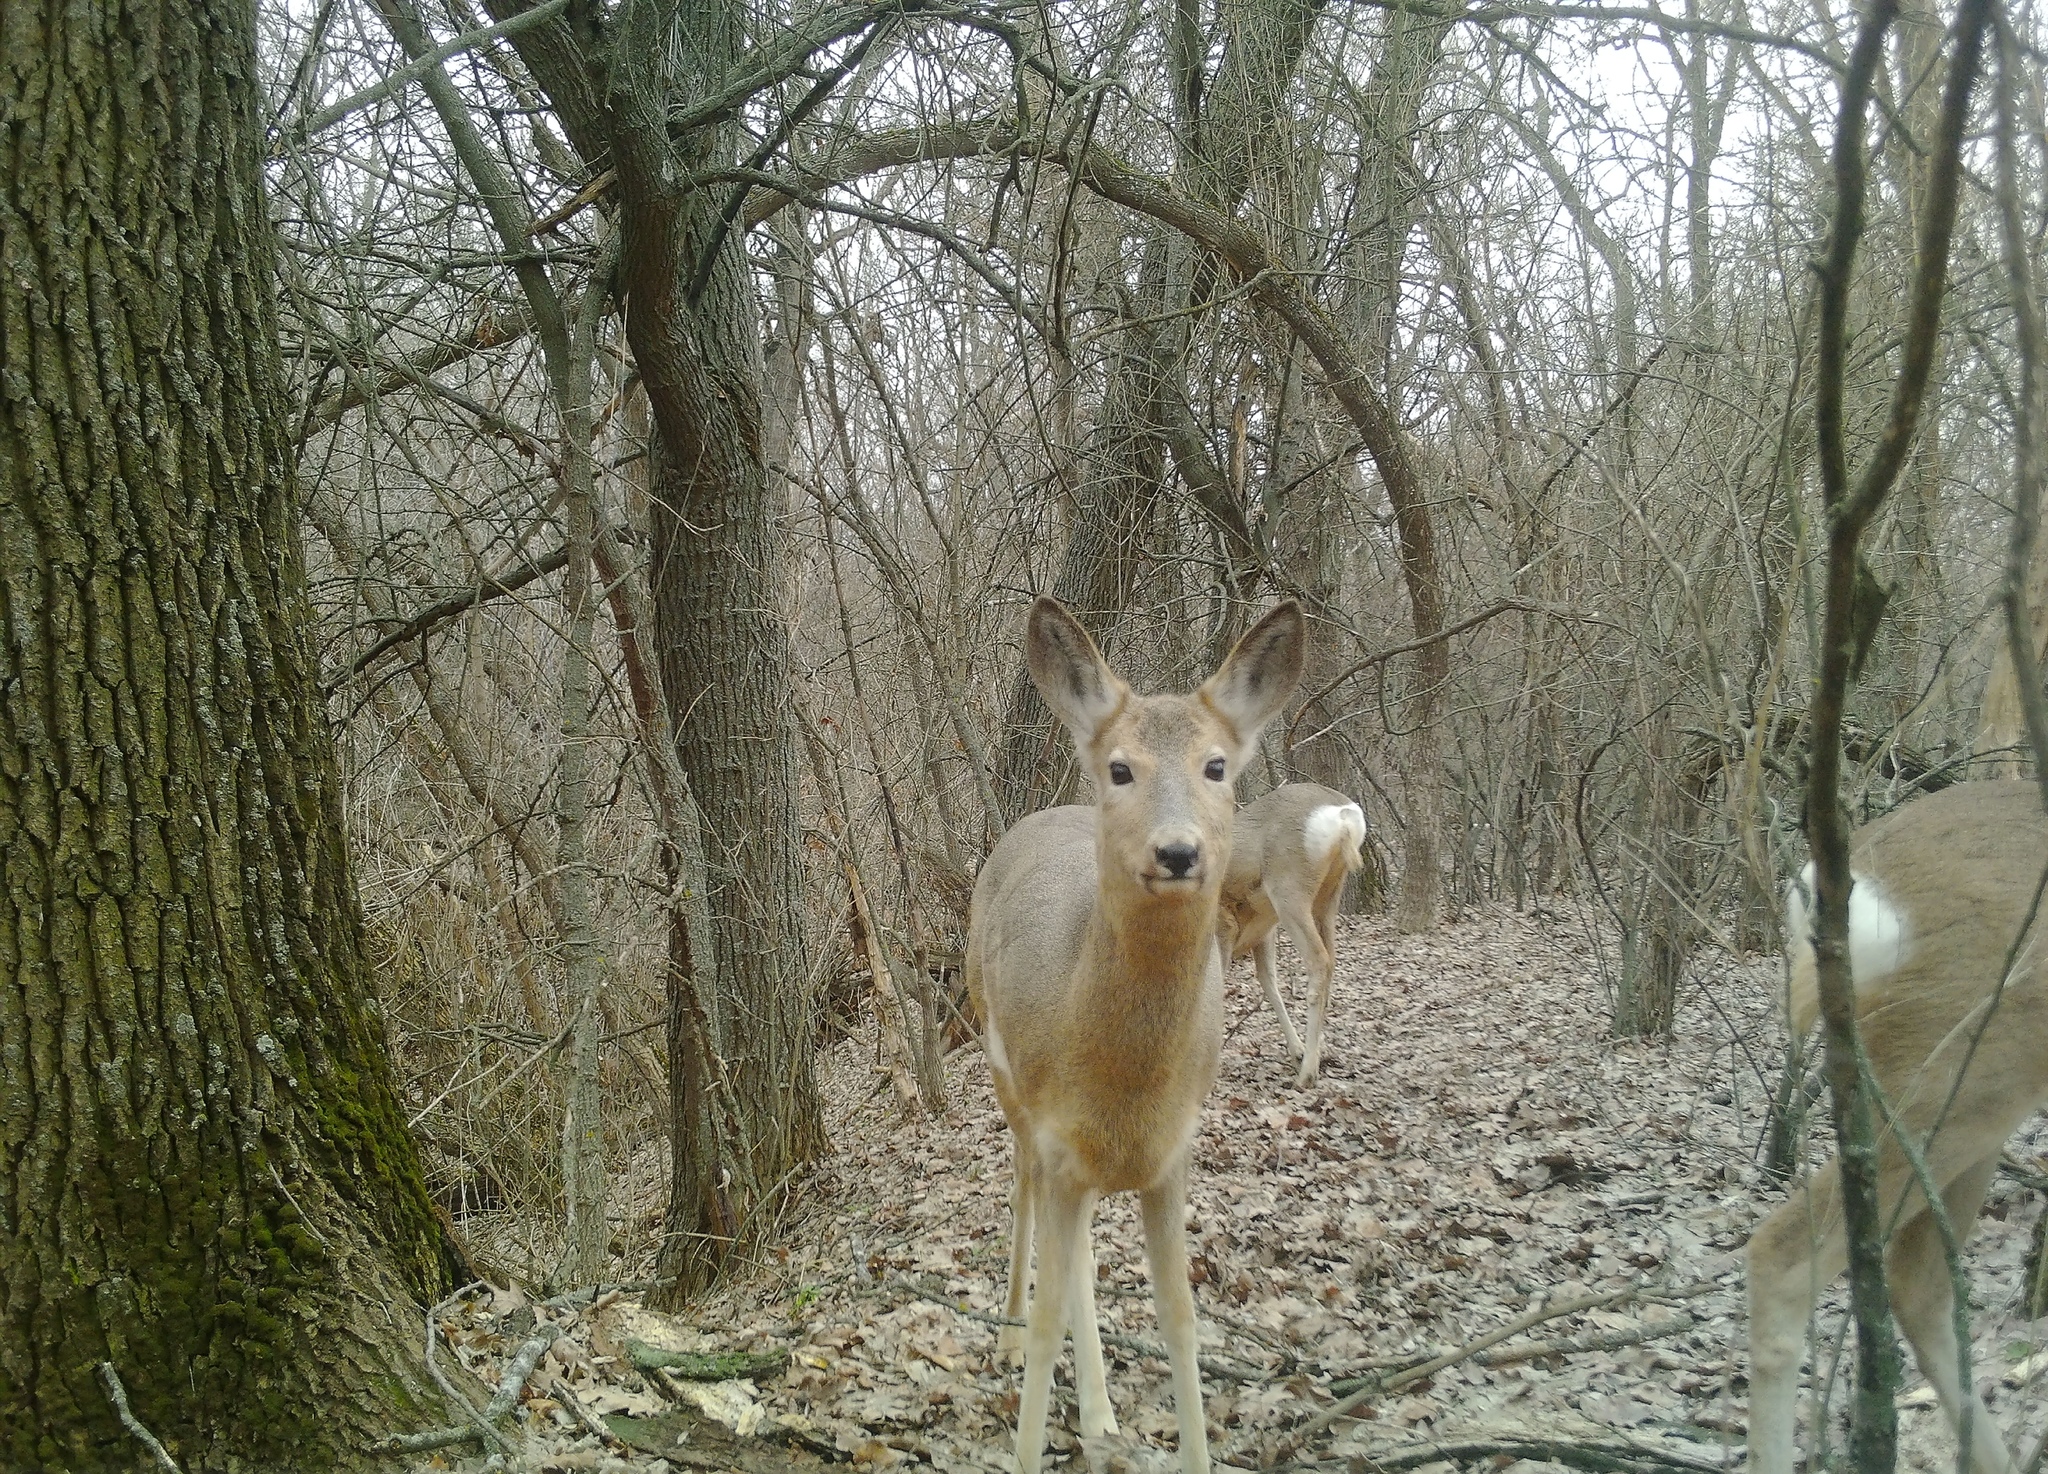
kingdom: Animalia
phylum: Chordata
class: Mammalia
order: Artiodactyla
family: Cervidae
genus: Capreolus
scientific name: Capreolus pygargus
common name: Siberian roe
